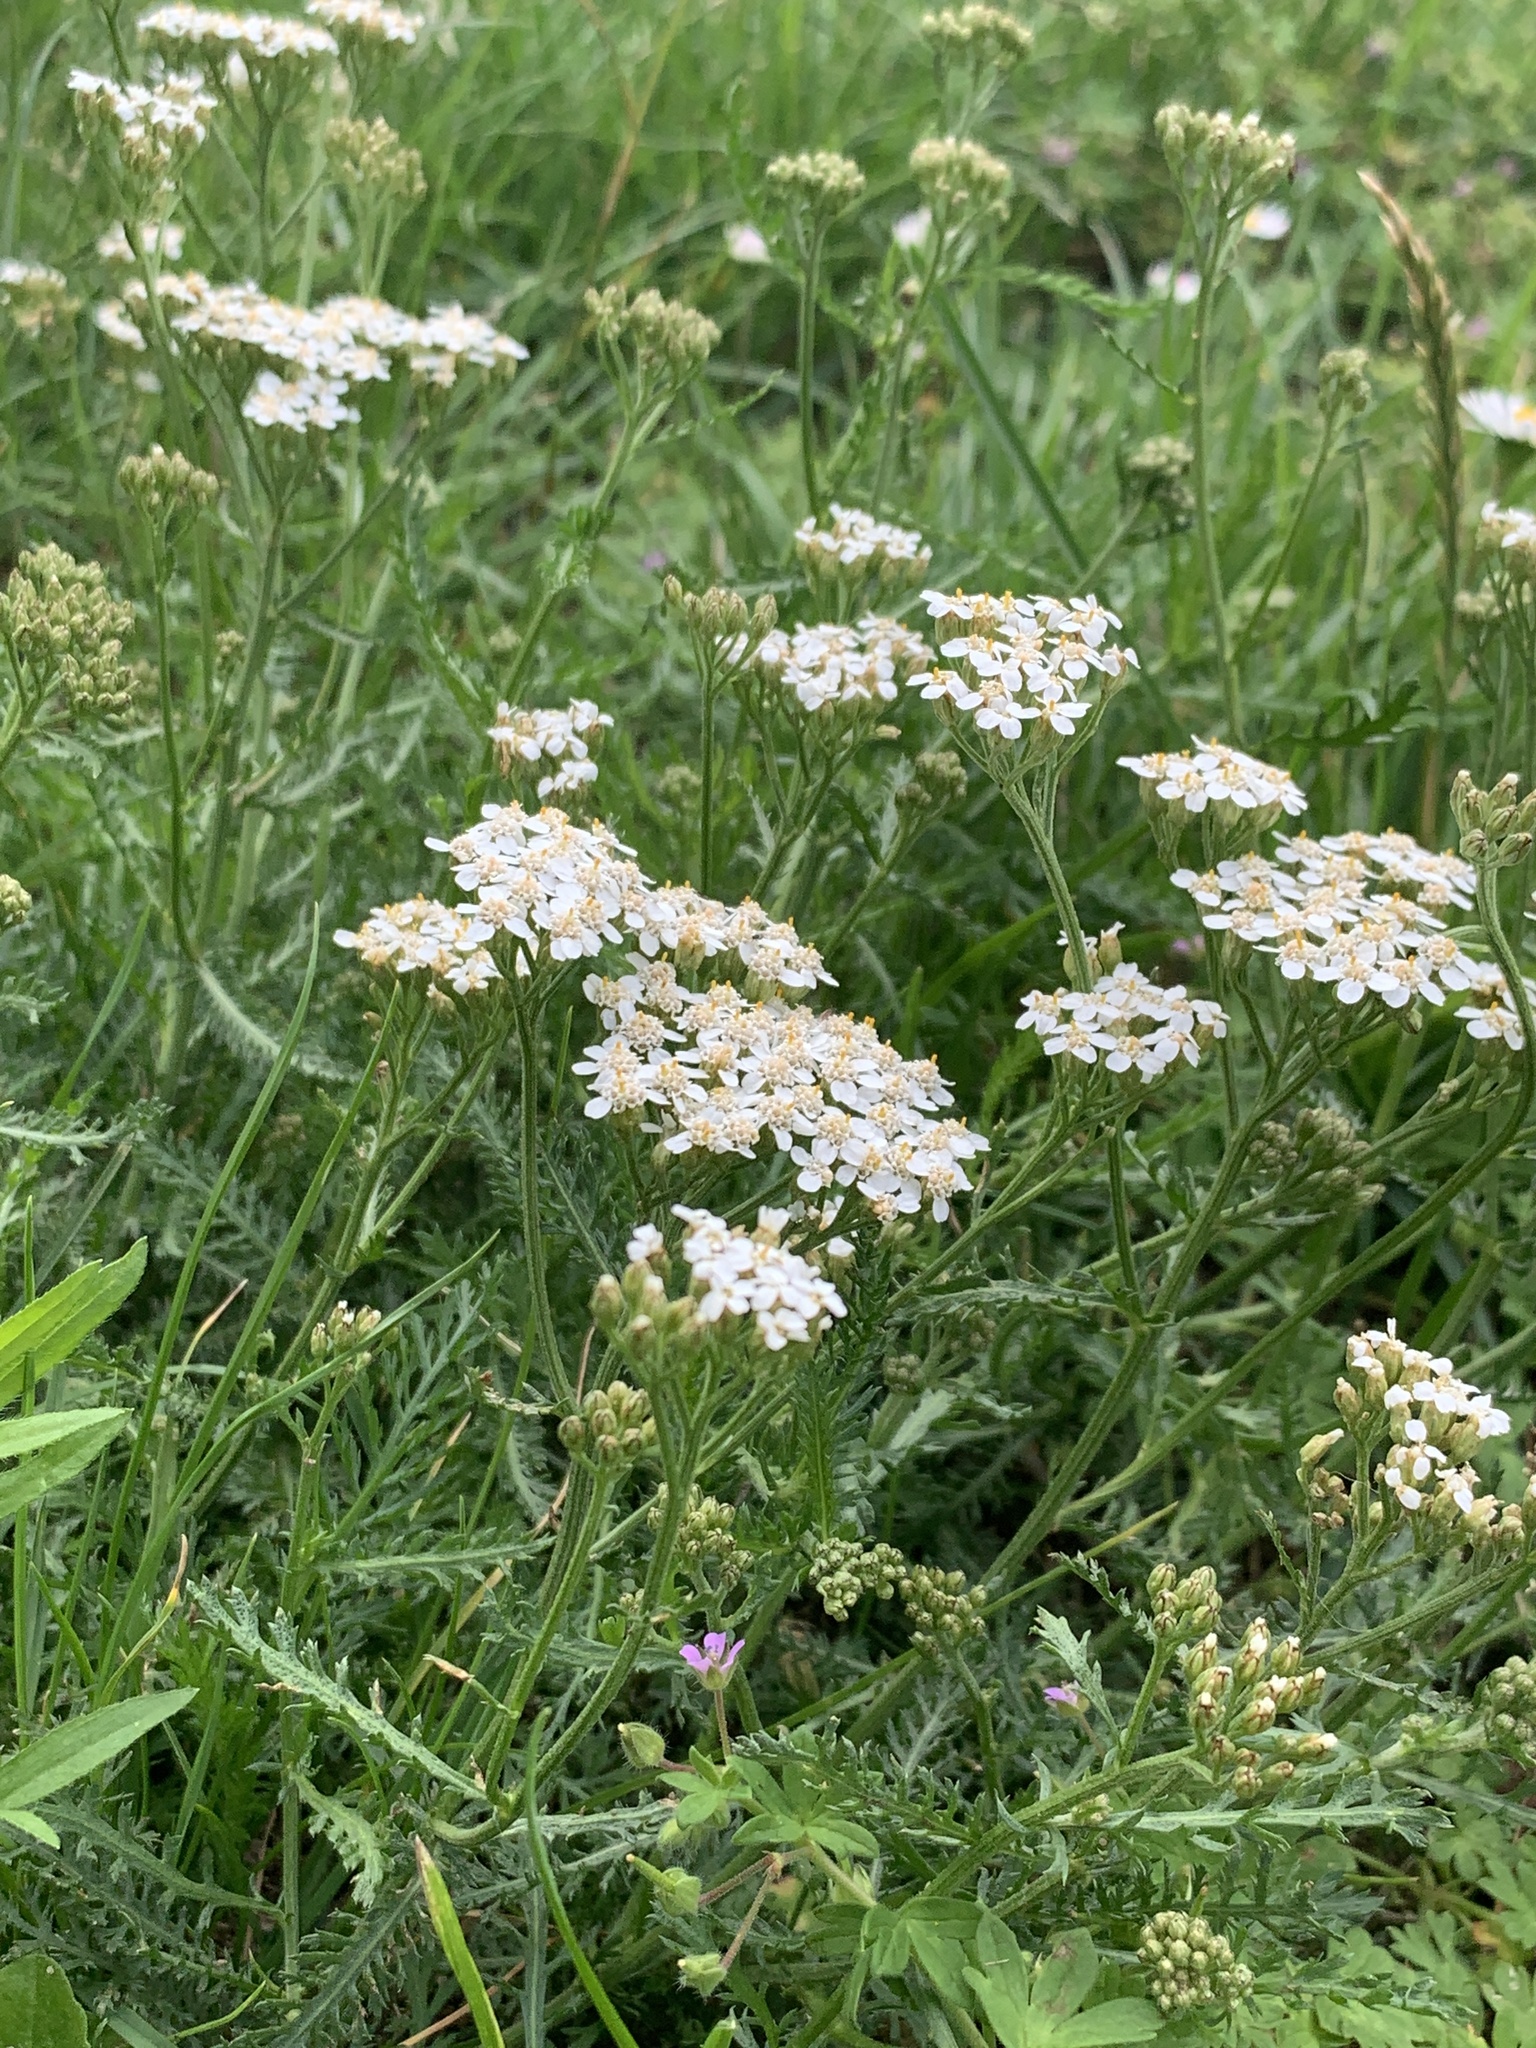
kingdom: Plantae
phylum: Tracheophyta
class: Magnoliopsida
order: Asterales
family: Asteraceae
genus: Achillea
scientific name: Achillea millefolium
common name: Yarrow
